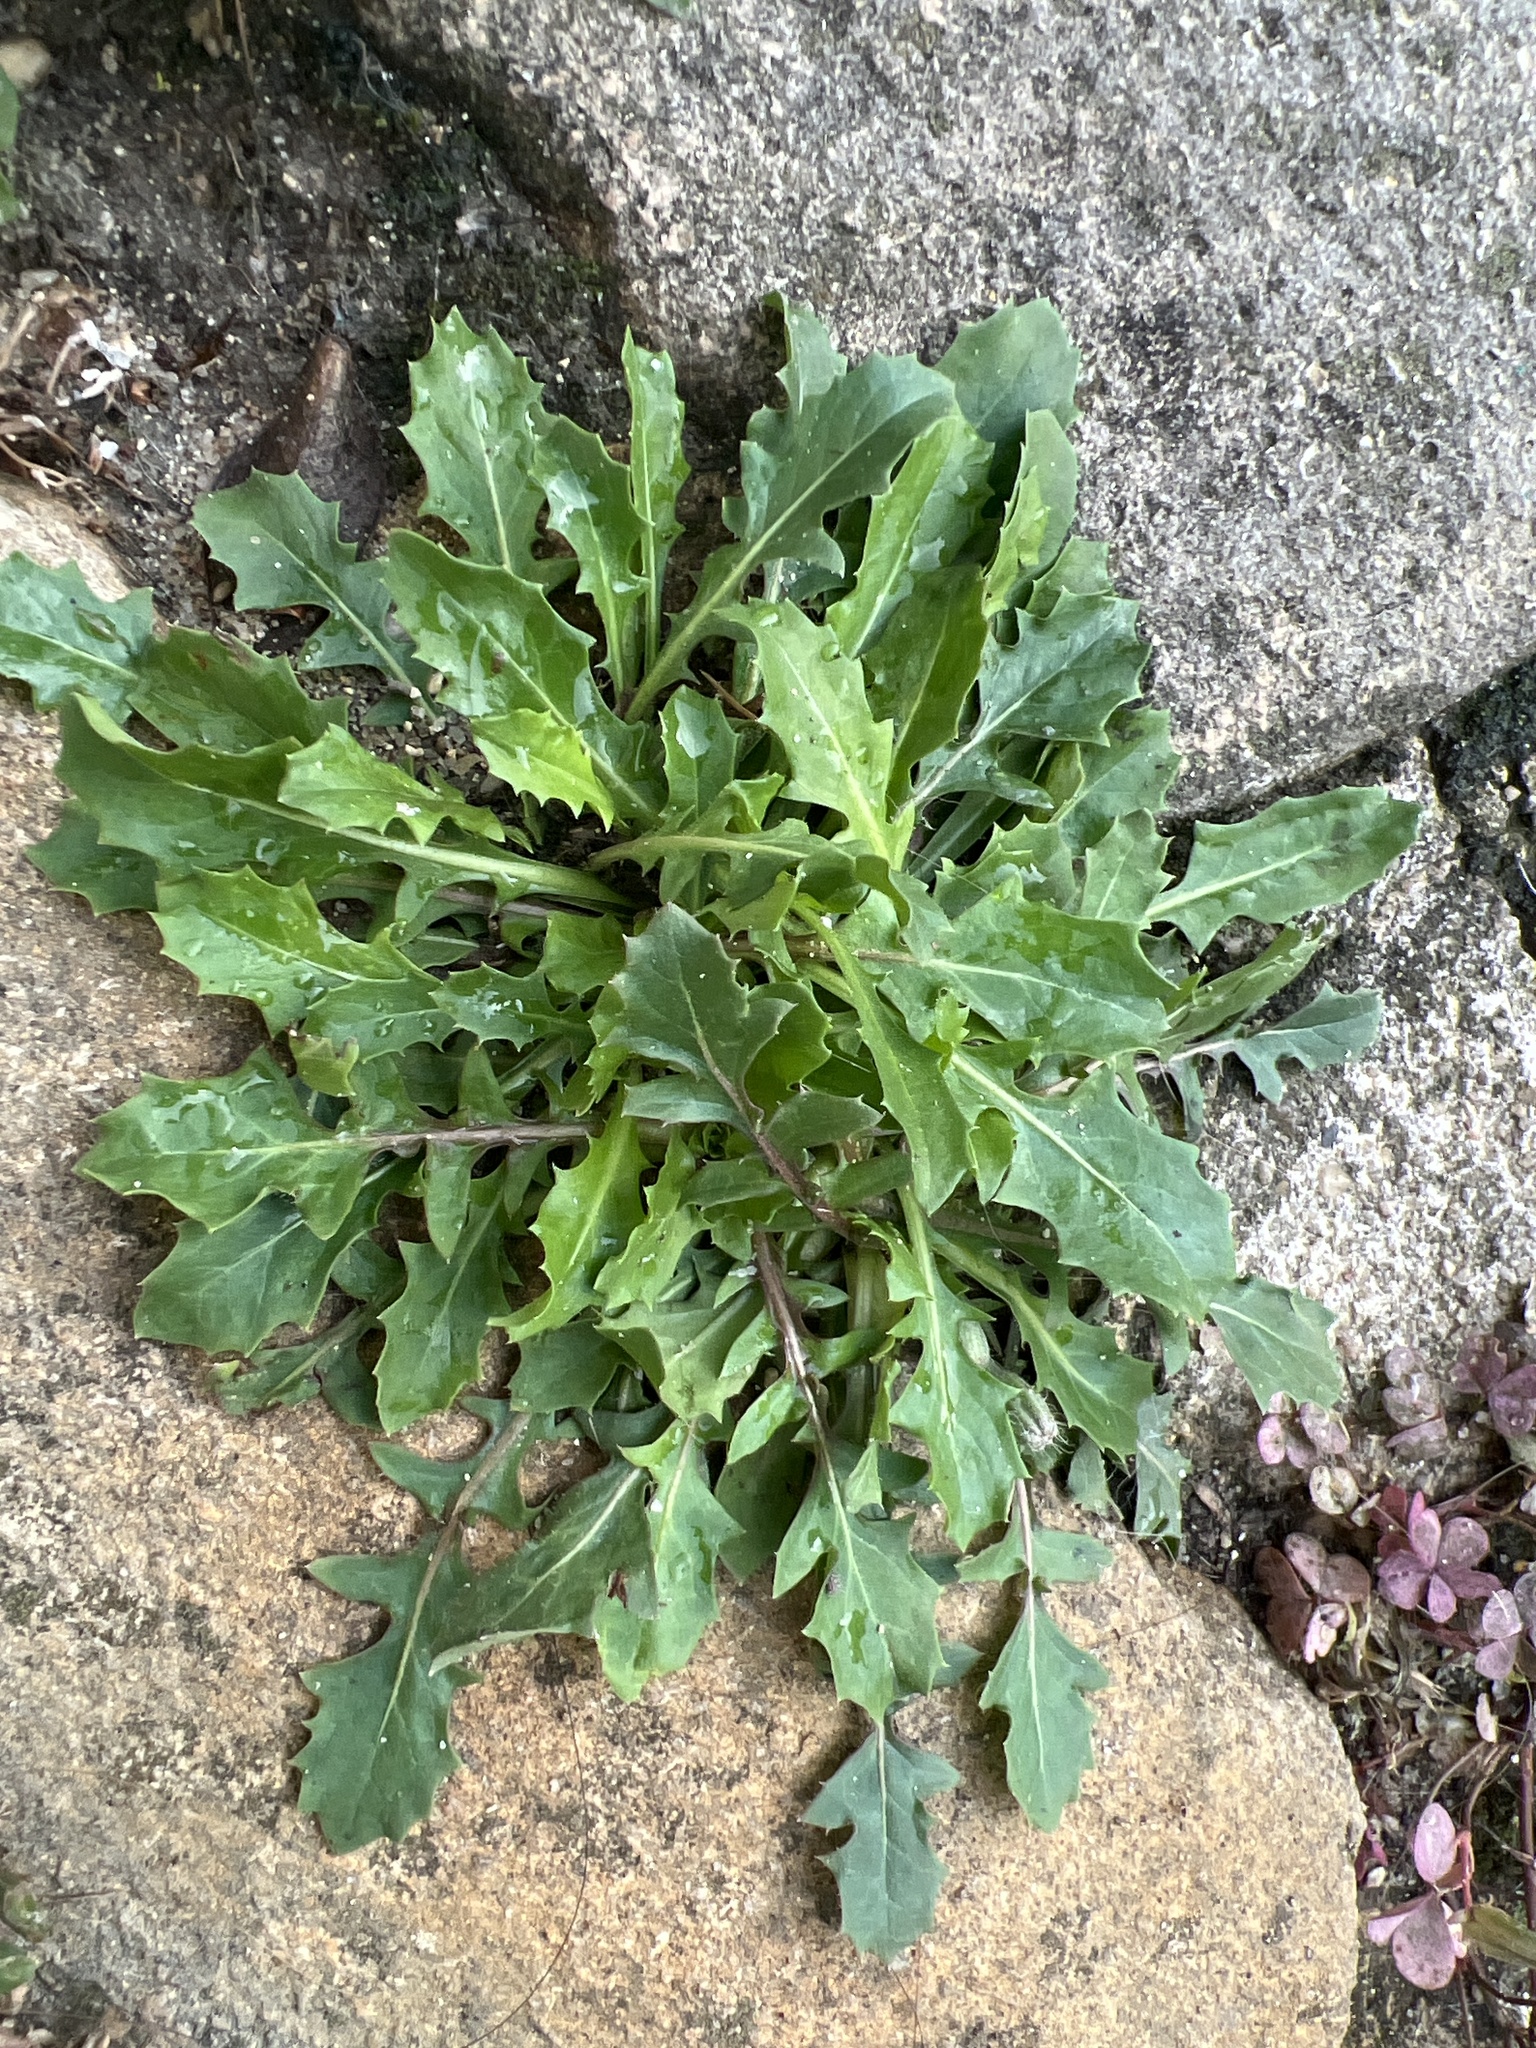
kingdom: Plantae
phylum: Tracheophyta
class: Magnoliopsida
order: Asterales
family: Asteraceae
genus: Crepis
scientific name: Crepis bursifolia
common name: Italian hawksbeard
